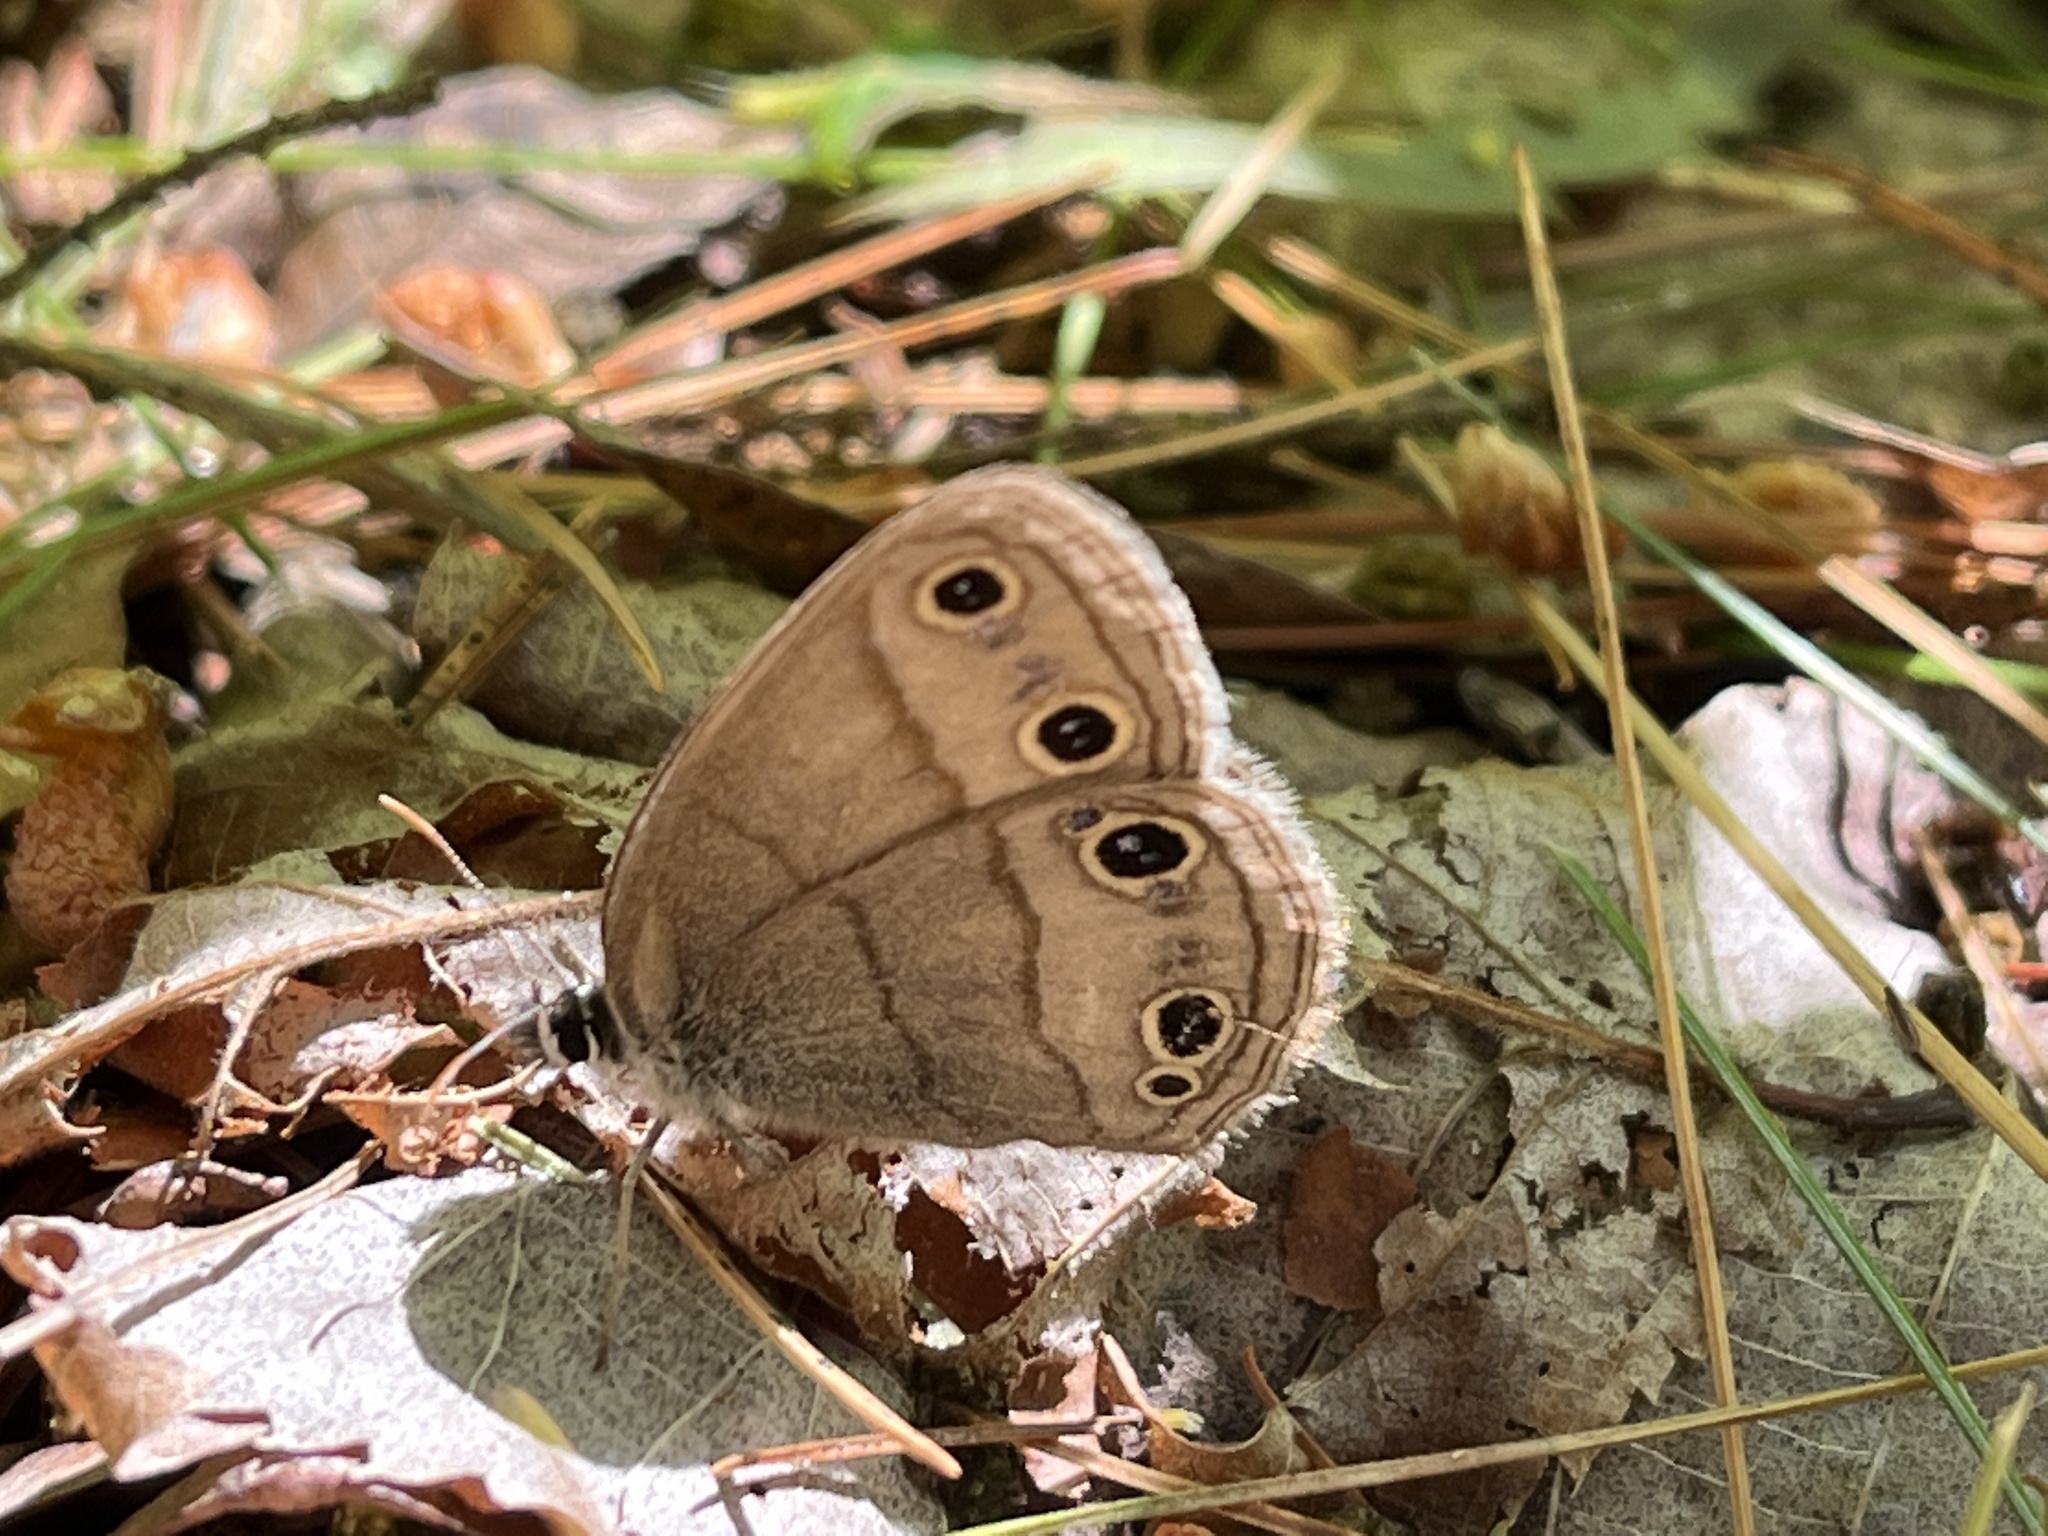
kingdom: Animalia
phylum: Arthropoda
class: Insecta
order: Lepidoptera
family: Nymphalidae
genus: Euptychia
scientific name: Euptychia cymela
